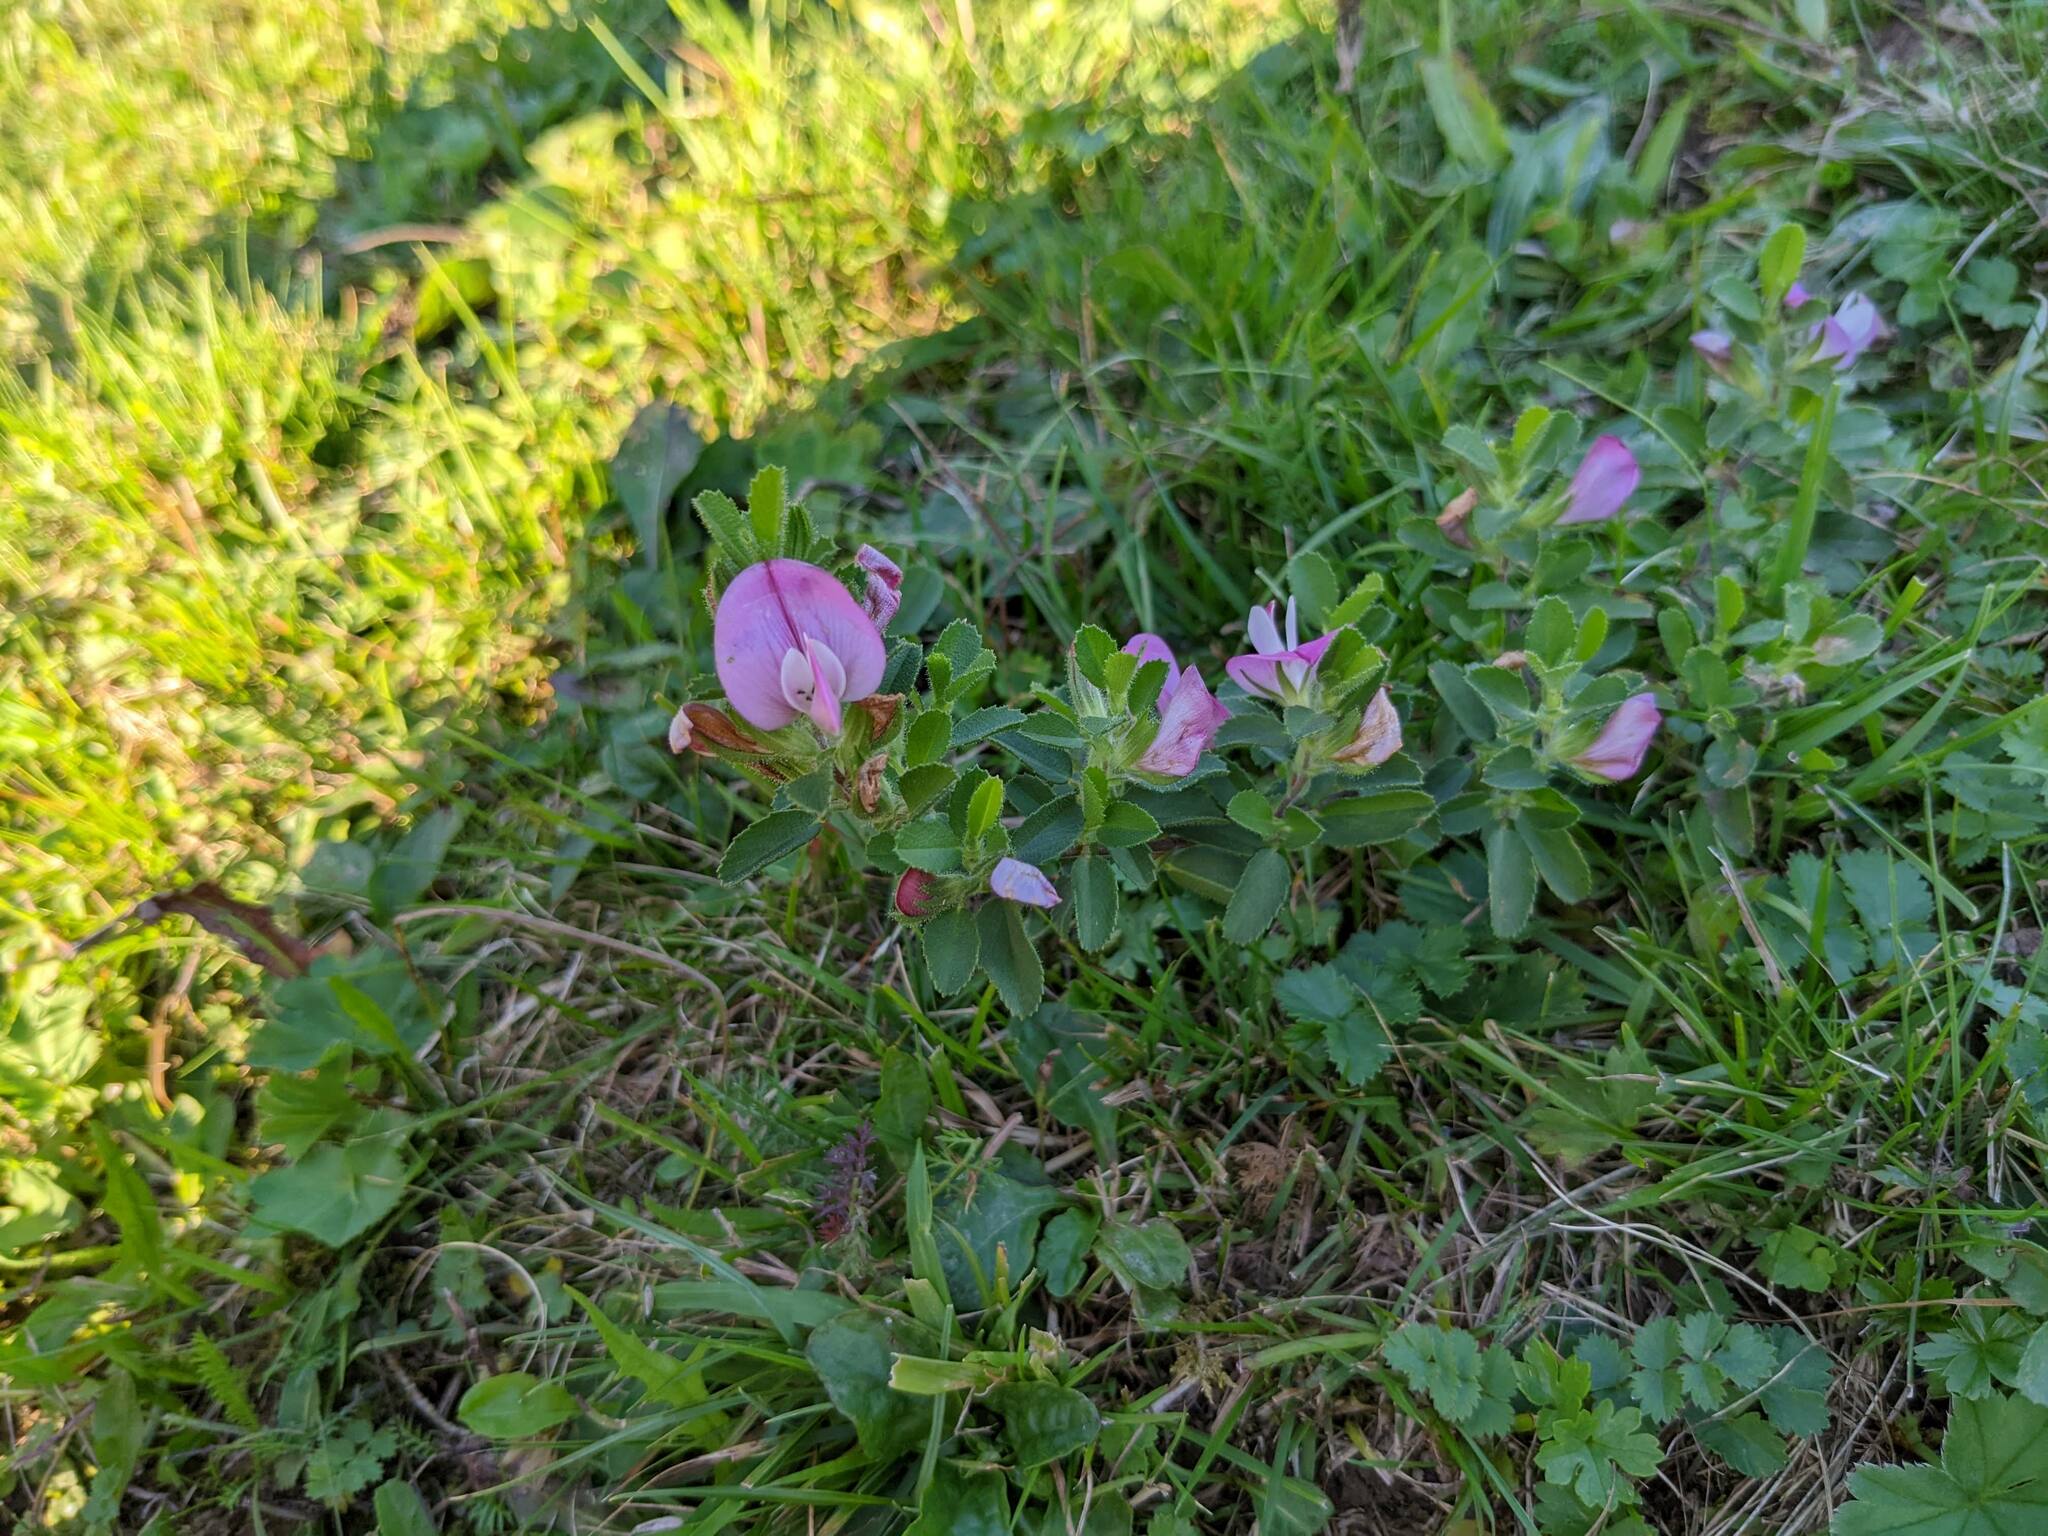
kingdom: Plantae
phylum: Tracheophyta
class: Magnoliopsida
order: Fabales
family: Fabaceae
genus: Ononis
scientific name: Ononis spinosa
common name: Spiny restharrow
